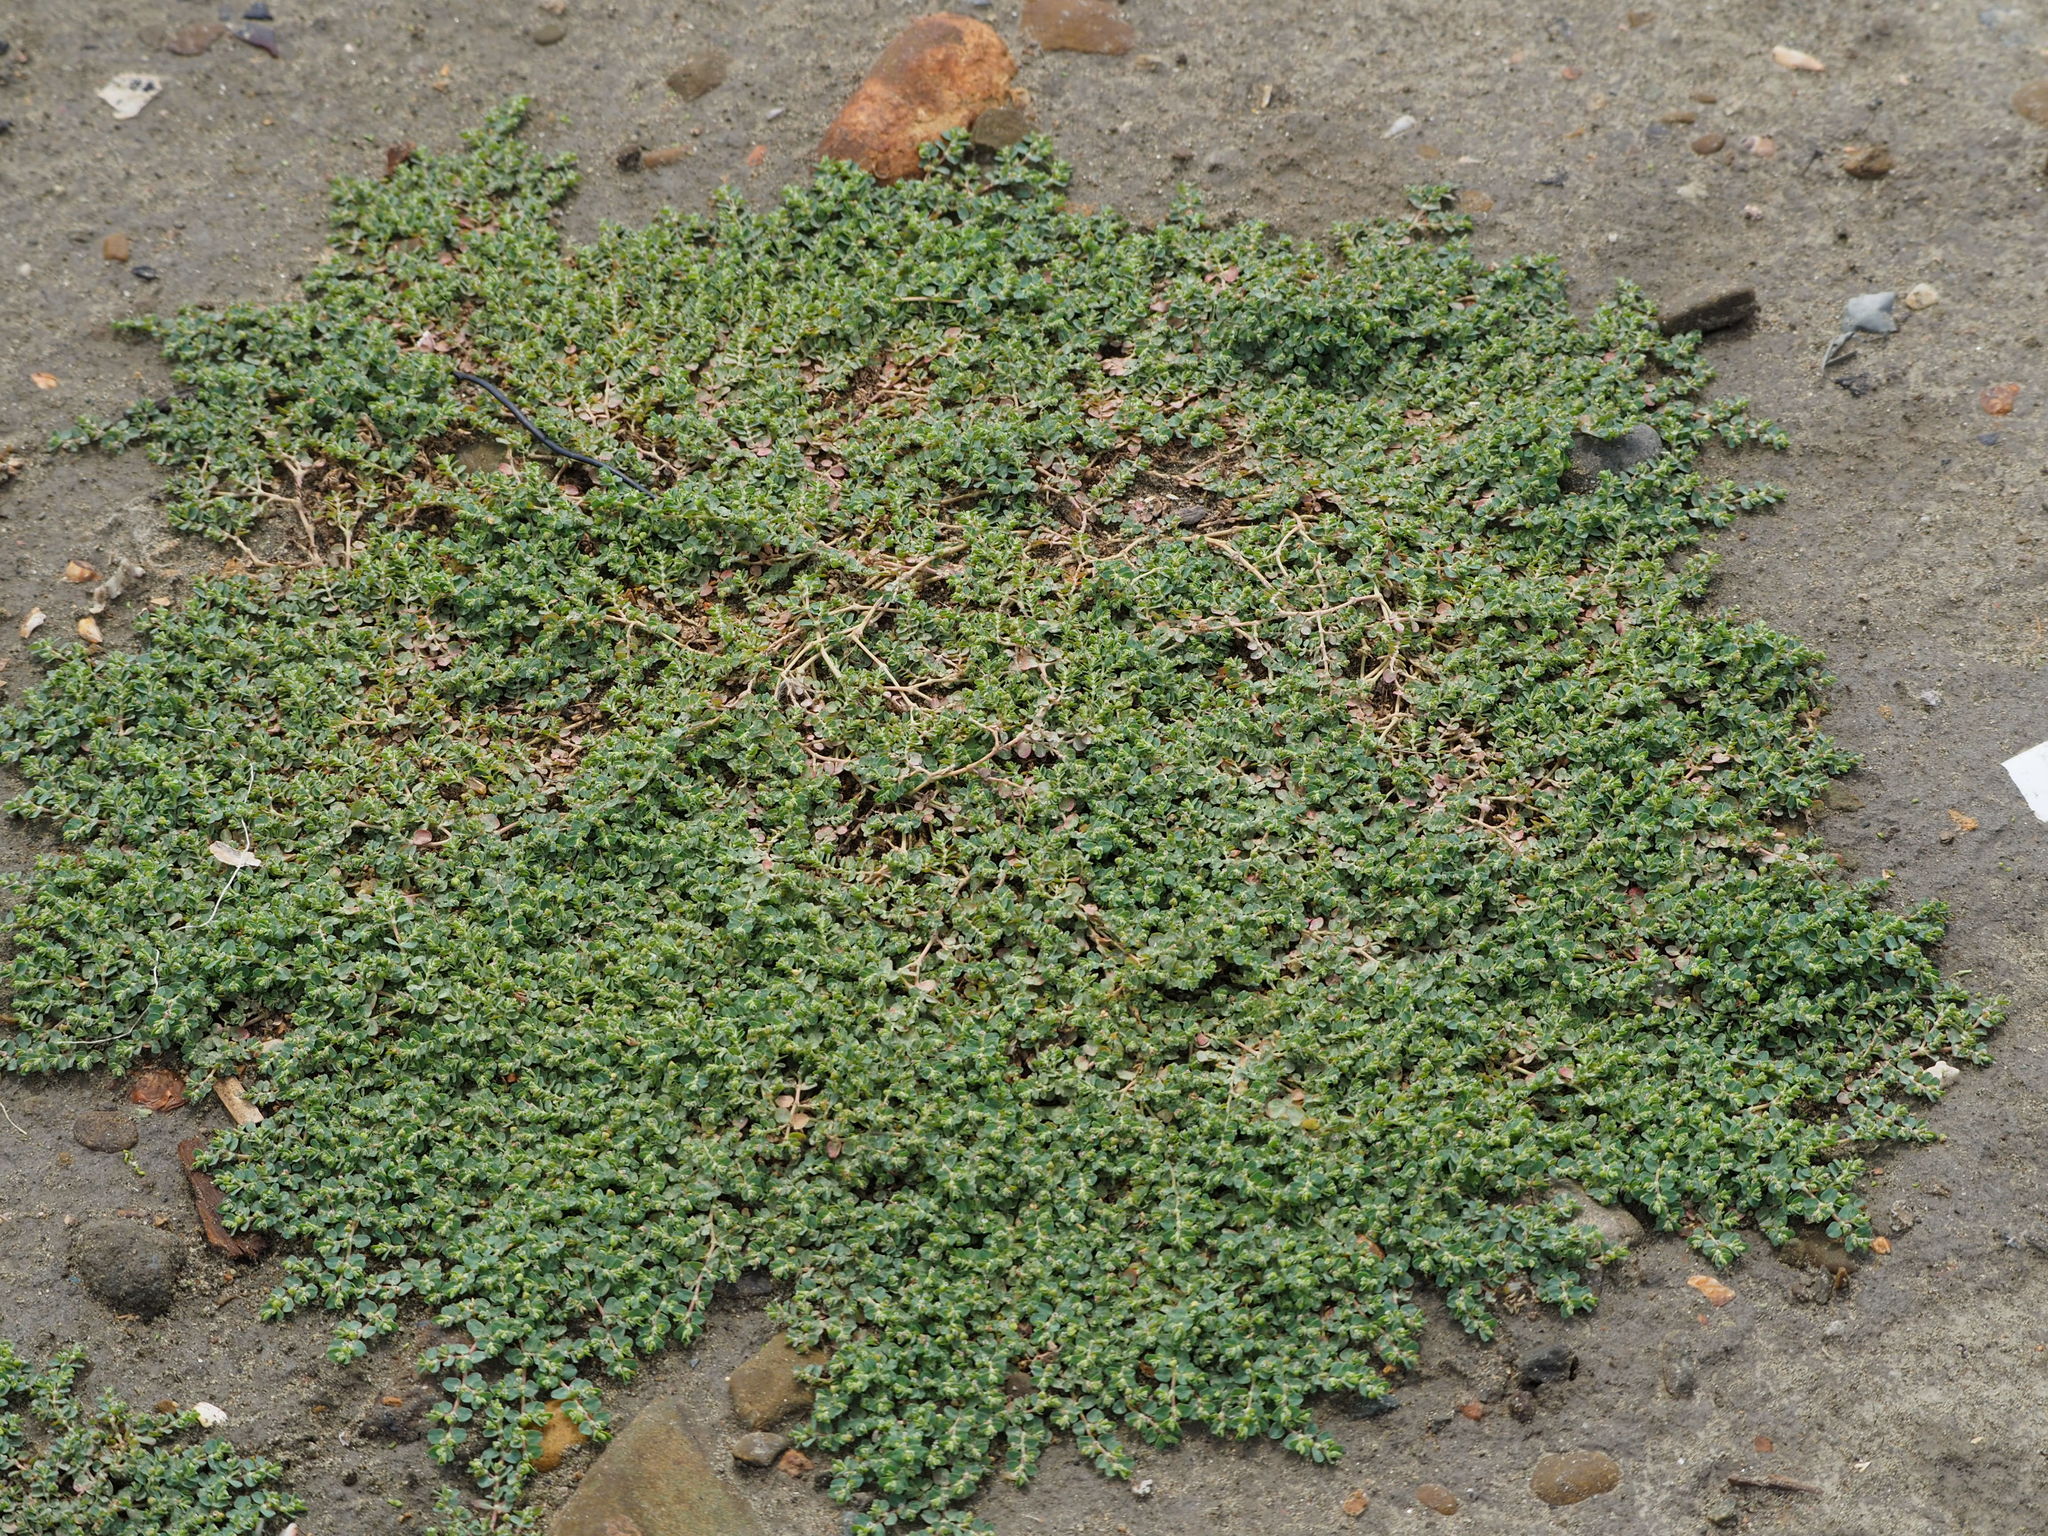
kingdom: Plantae
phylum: Tracheophyta
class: Magnoliopsida
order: Malpighiales
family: Euphorbiaceae
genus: Euphorbia
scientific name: Euphorbia serpens
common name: Matted sandmat
